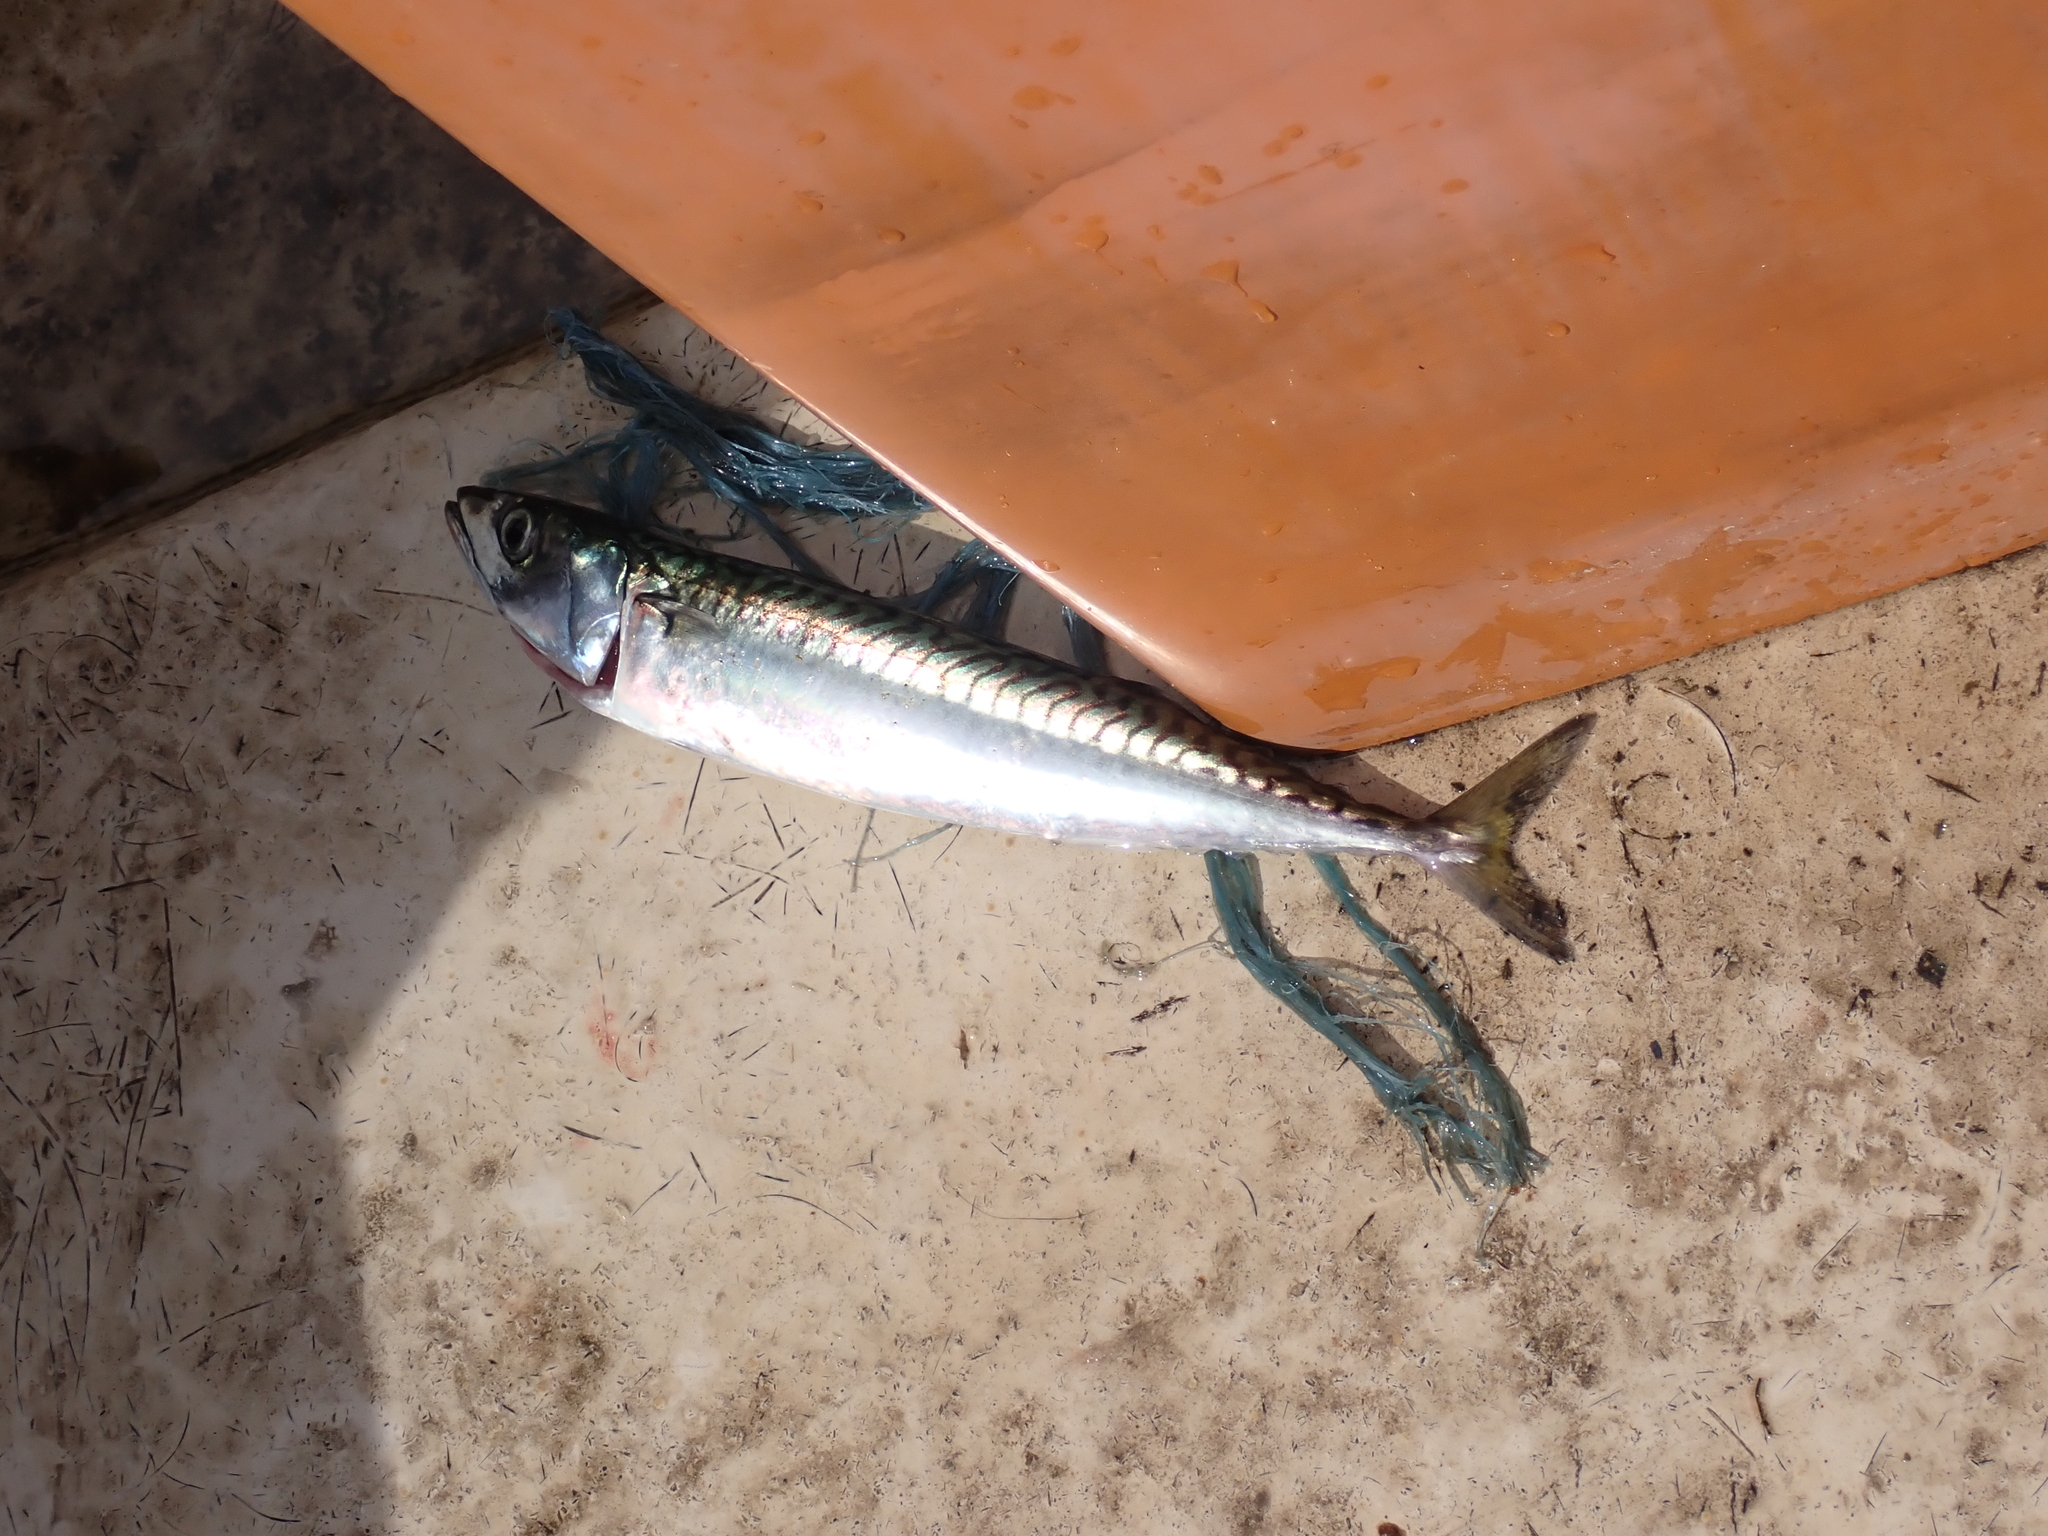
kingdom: Animalia
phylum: Chordata
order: Perciformes
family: Scombridae
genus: Scomber
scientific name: Scomber scombrus
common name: Mackerel
